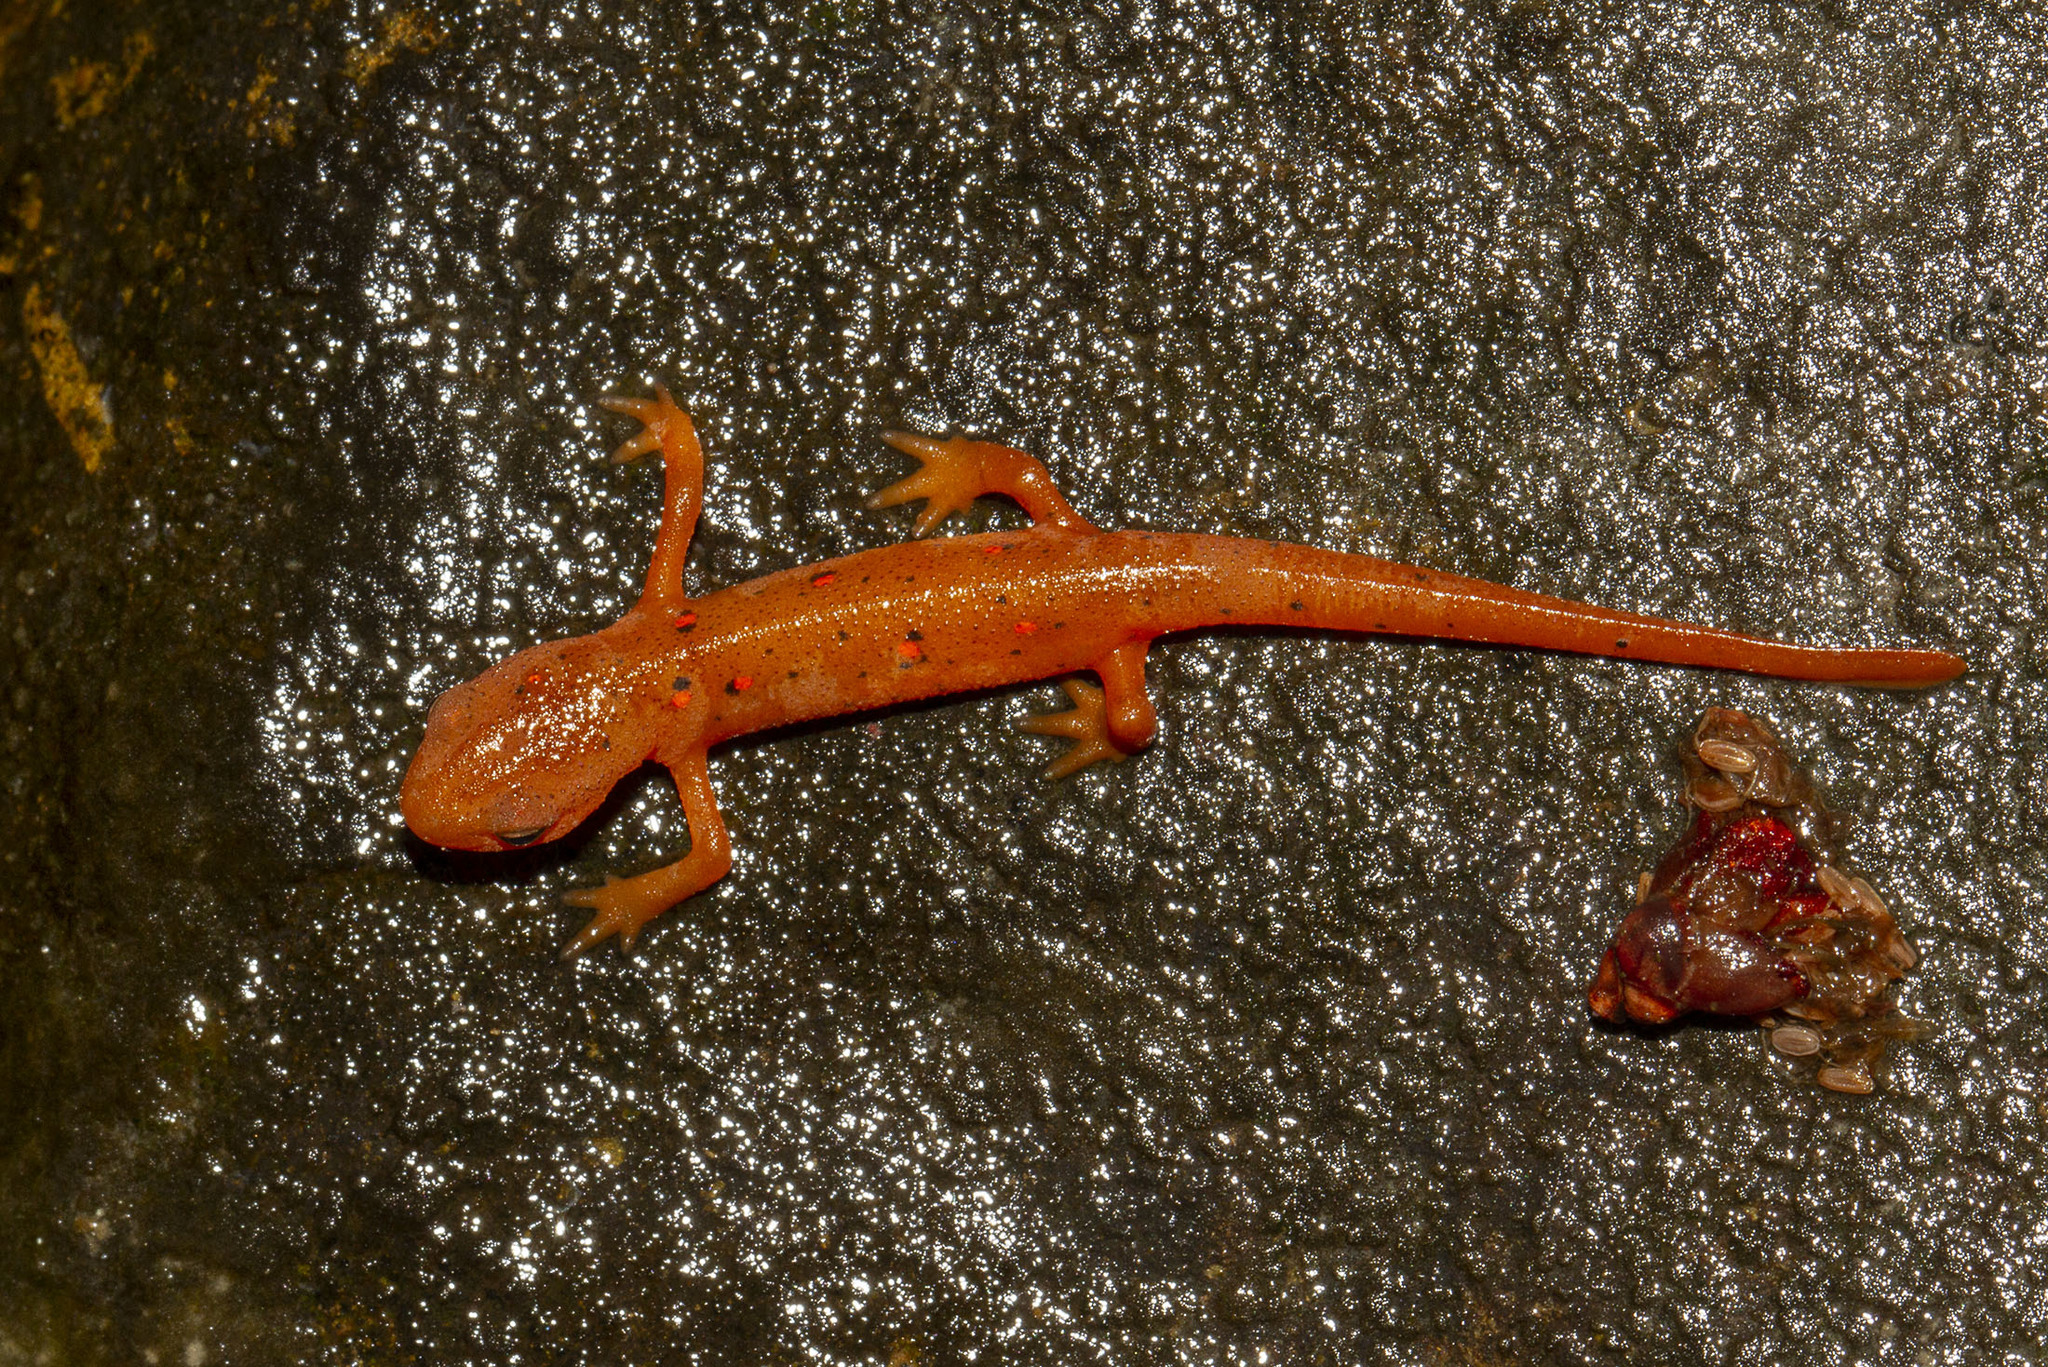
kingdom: Animalia
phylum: Chordata
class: Amphibia
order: Caudata
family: Salamandridae
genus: Notophthalmus
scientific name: Notophthalmus viridescens
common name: Eastern newt
